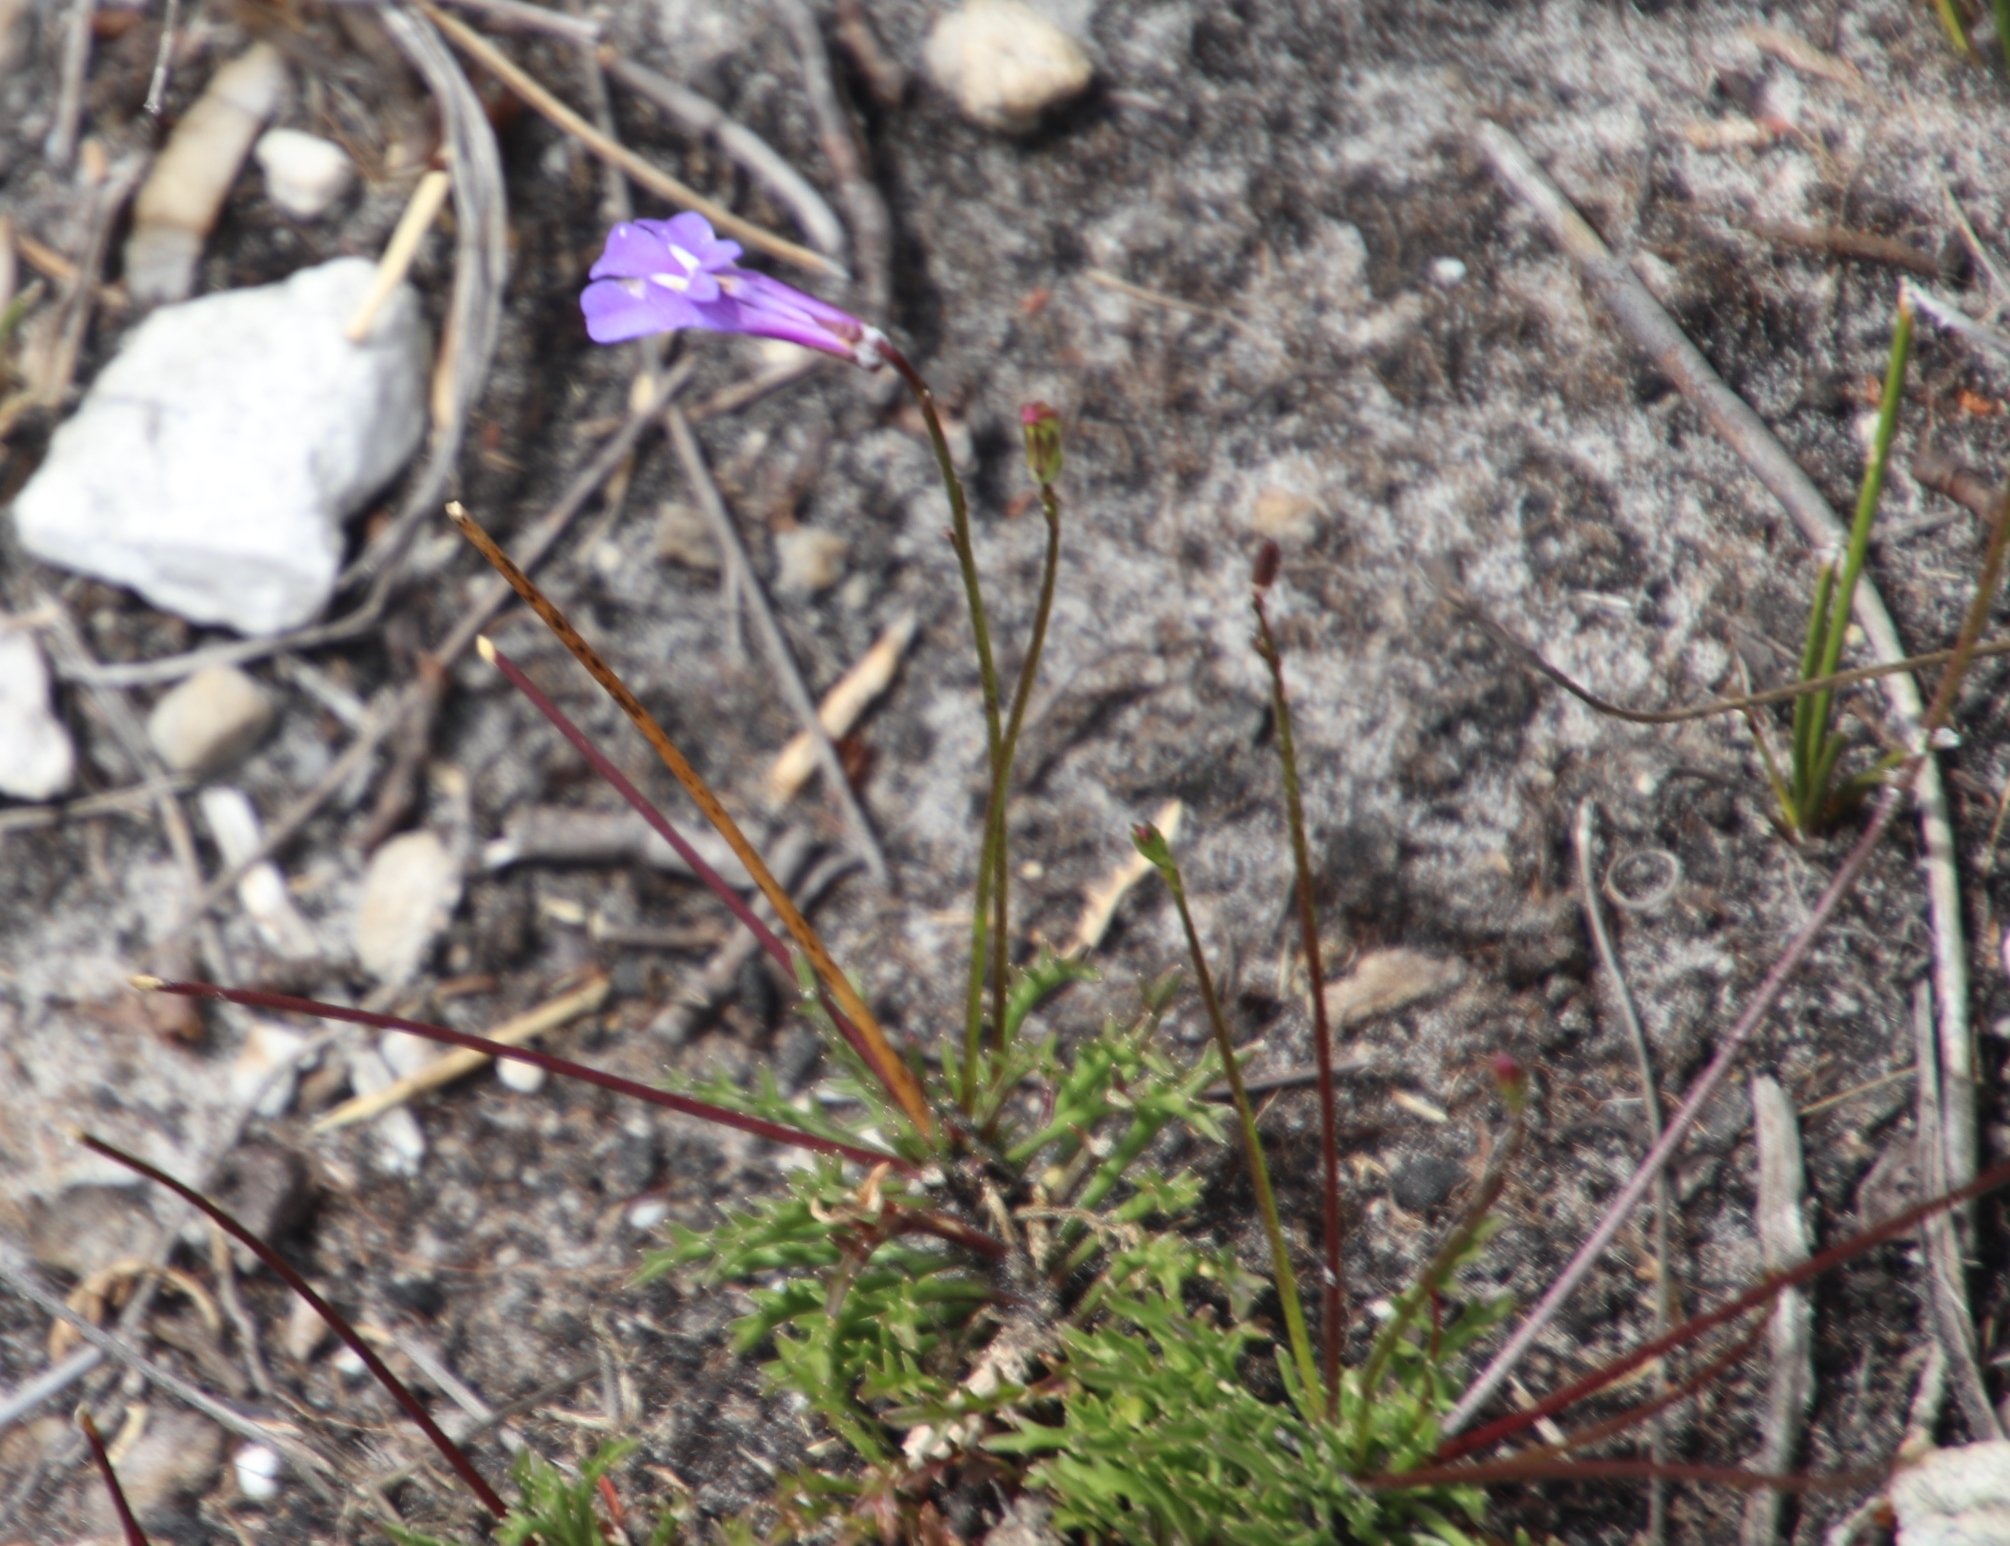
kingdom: Plantae
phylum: Tracheophyta
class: Magnoliopsida
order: Asterales
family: Campanulaceae
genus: Lobelia
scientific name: Lobelia coronopifolia
